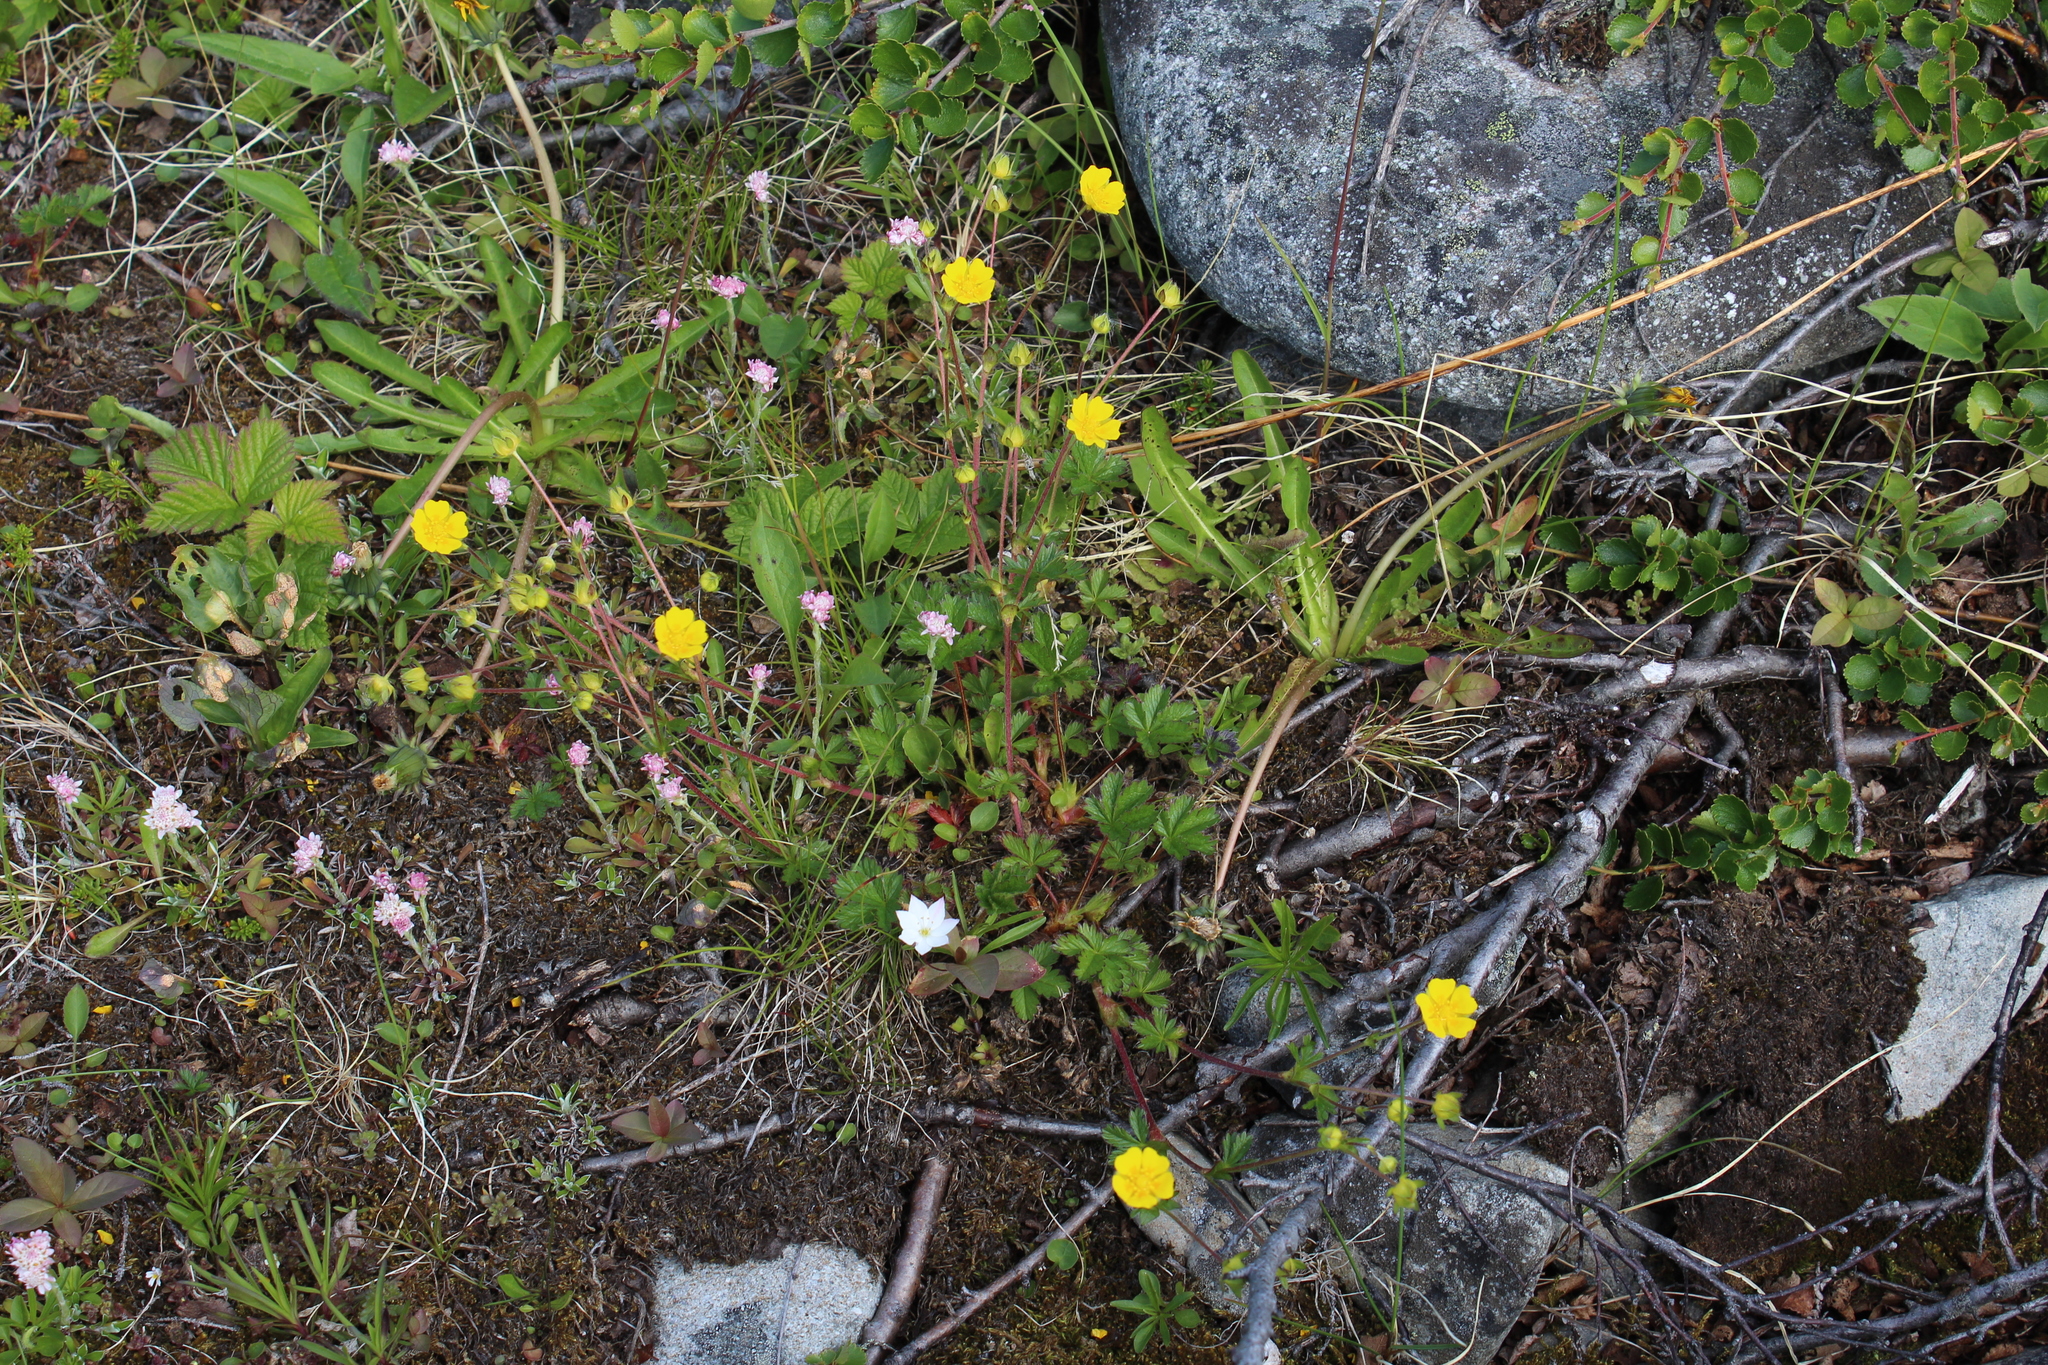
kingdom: Plantae
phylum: Tracheophyta
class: Magnoliopsida
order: Rosales
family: Rosaceae
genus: Potentilla
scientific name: Potentilla crantzii
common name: Alpine cinquefoil
